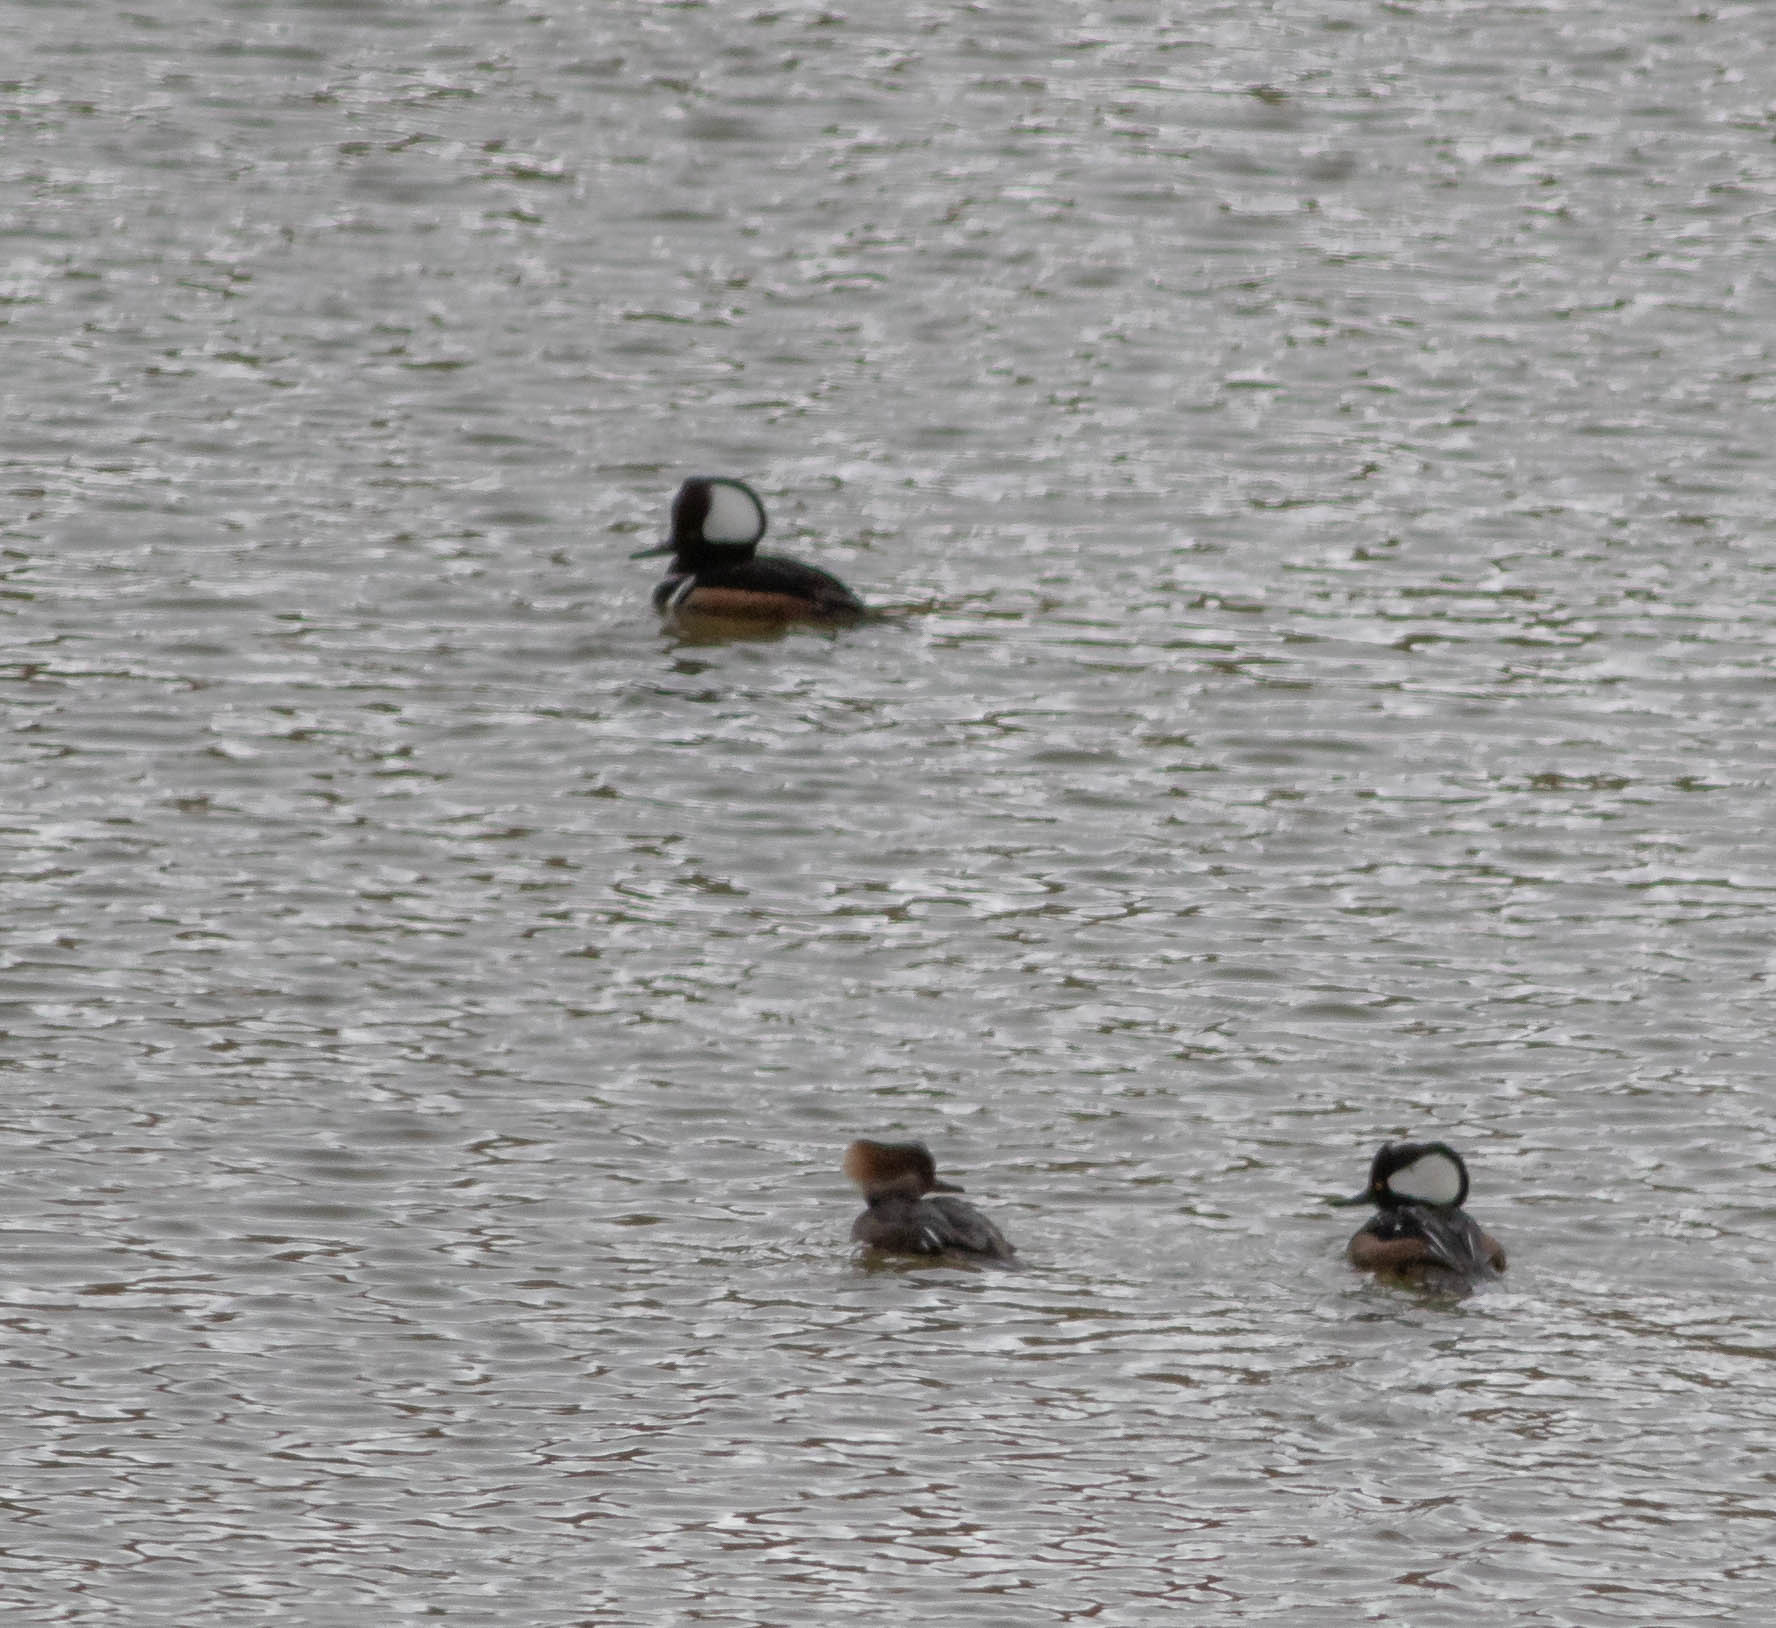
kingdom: Animalia
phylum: Chordata
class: Aves
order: Anseriformes
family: Anatidae
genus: Lophodytes
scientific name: Lophodytes cucullatus
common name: Hooded merganser
